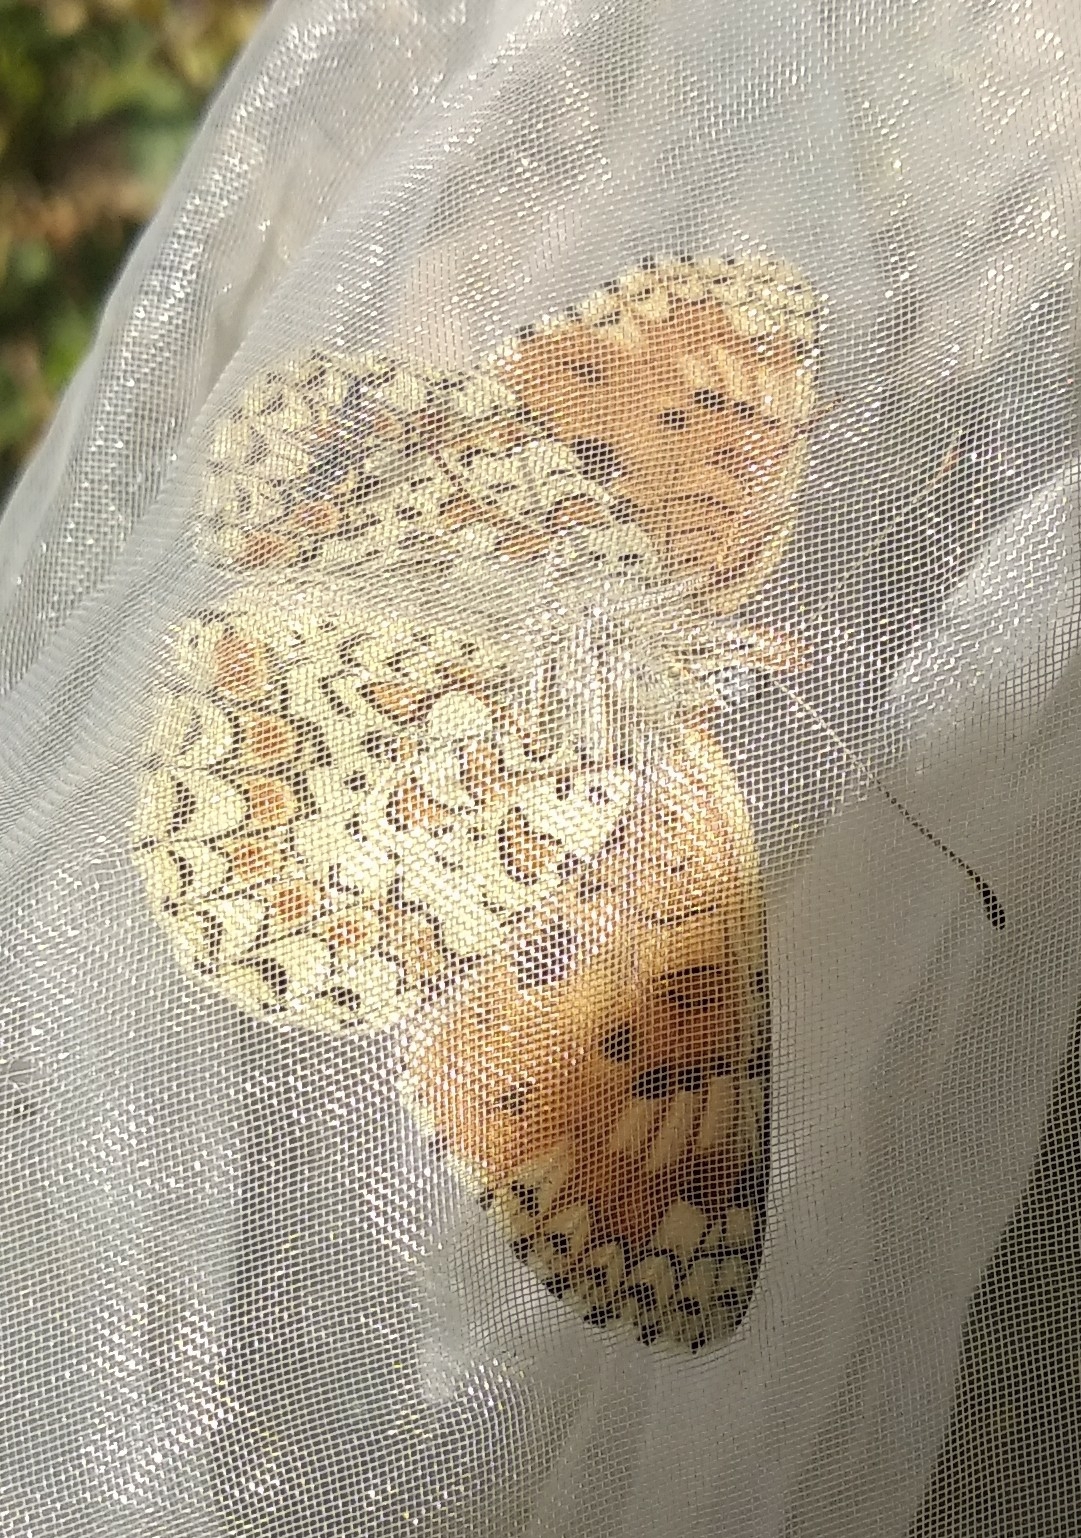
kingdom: Animalia
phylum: Arthropoda
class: Insecta
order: Lepidoptera
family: Nymphalidae
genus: Melitaea
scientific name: Melitaea pseudornata
